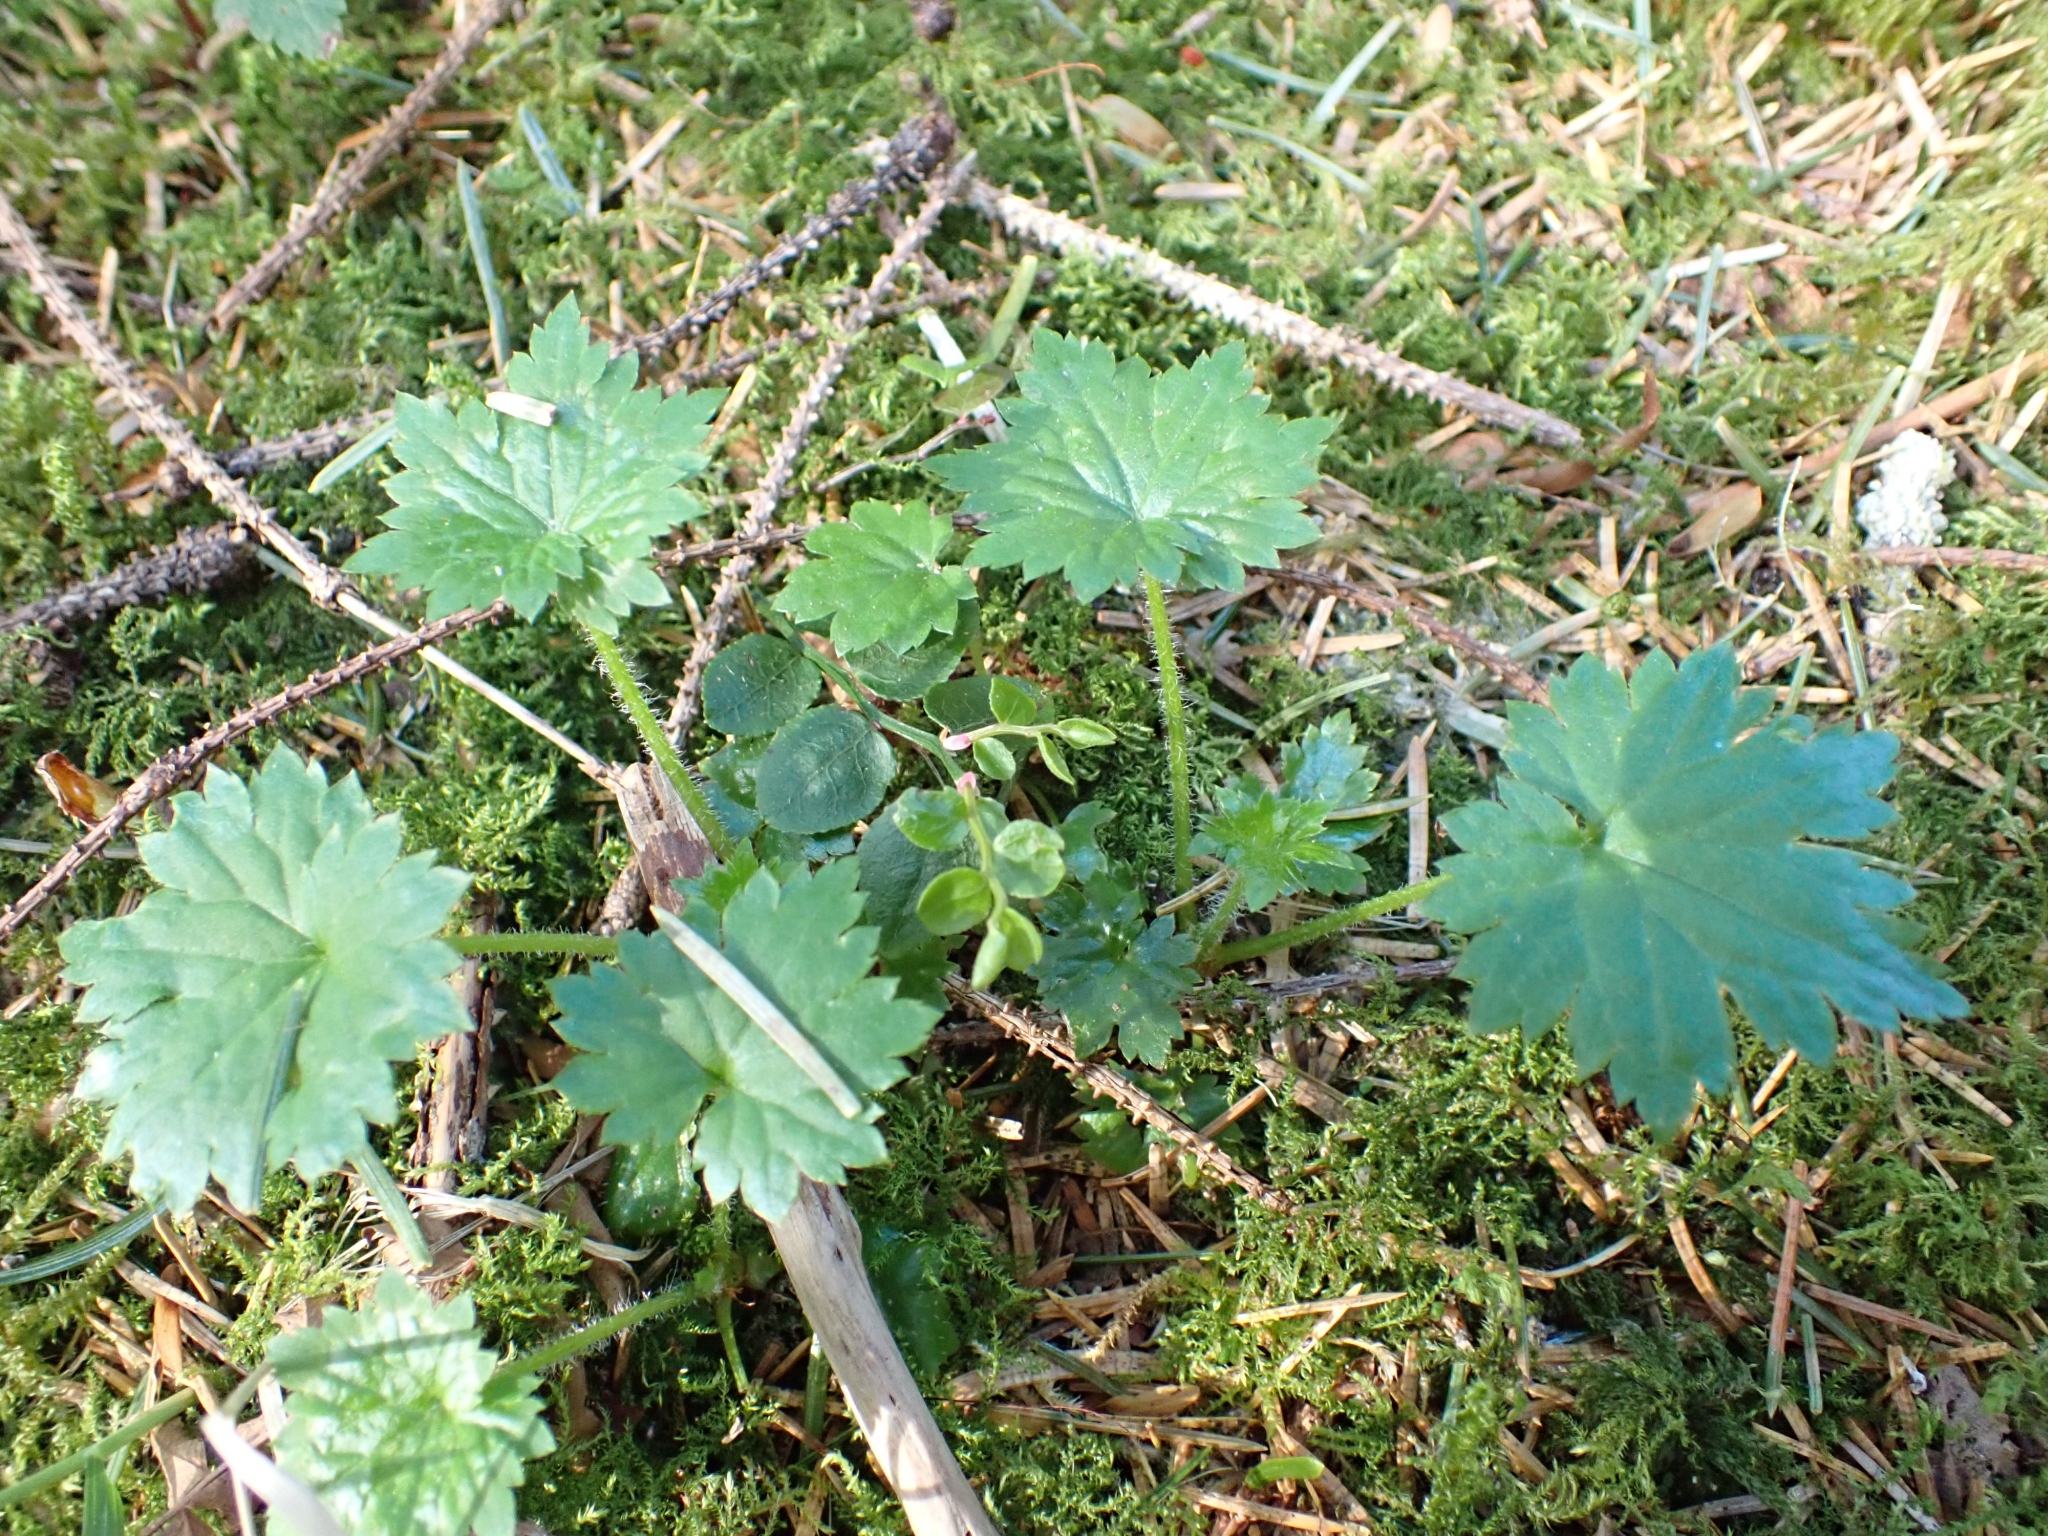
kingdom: Plantae
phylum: Tracheophyta
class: Magnoliopsida
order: Saxifragales
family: Saxifragaceae
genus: Boykinia
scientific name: Boykinia occidentalis
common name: Coast boykinia
